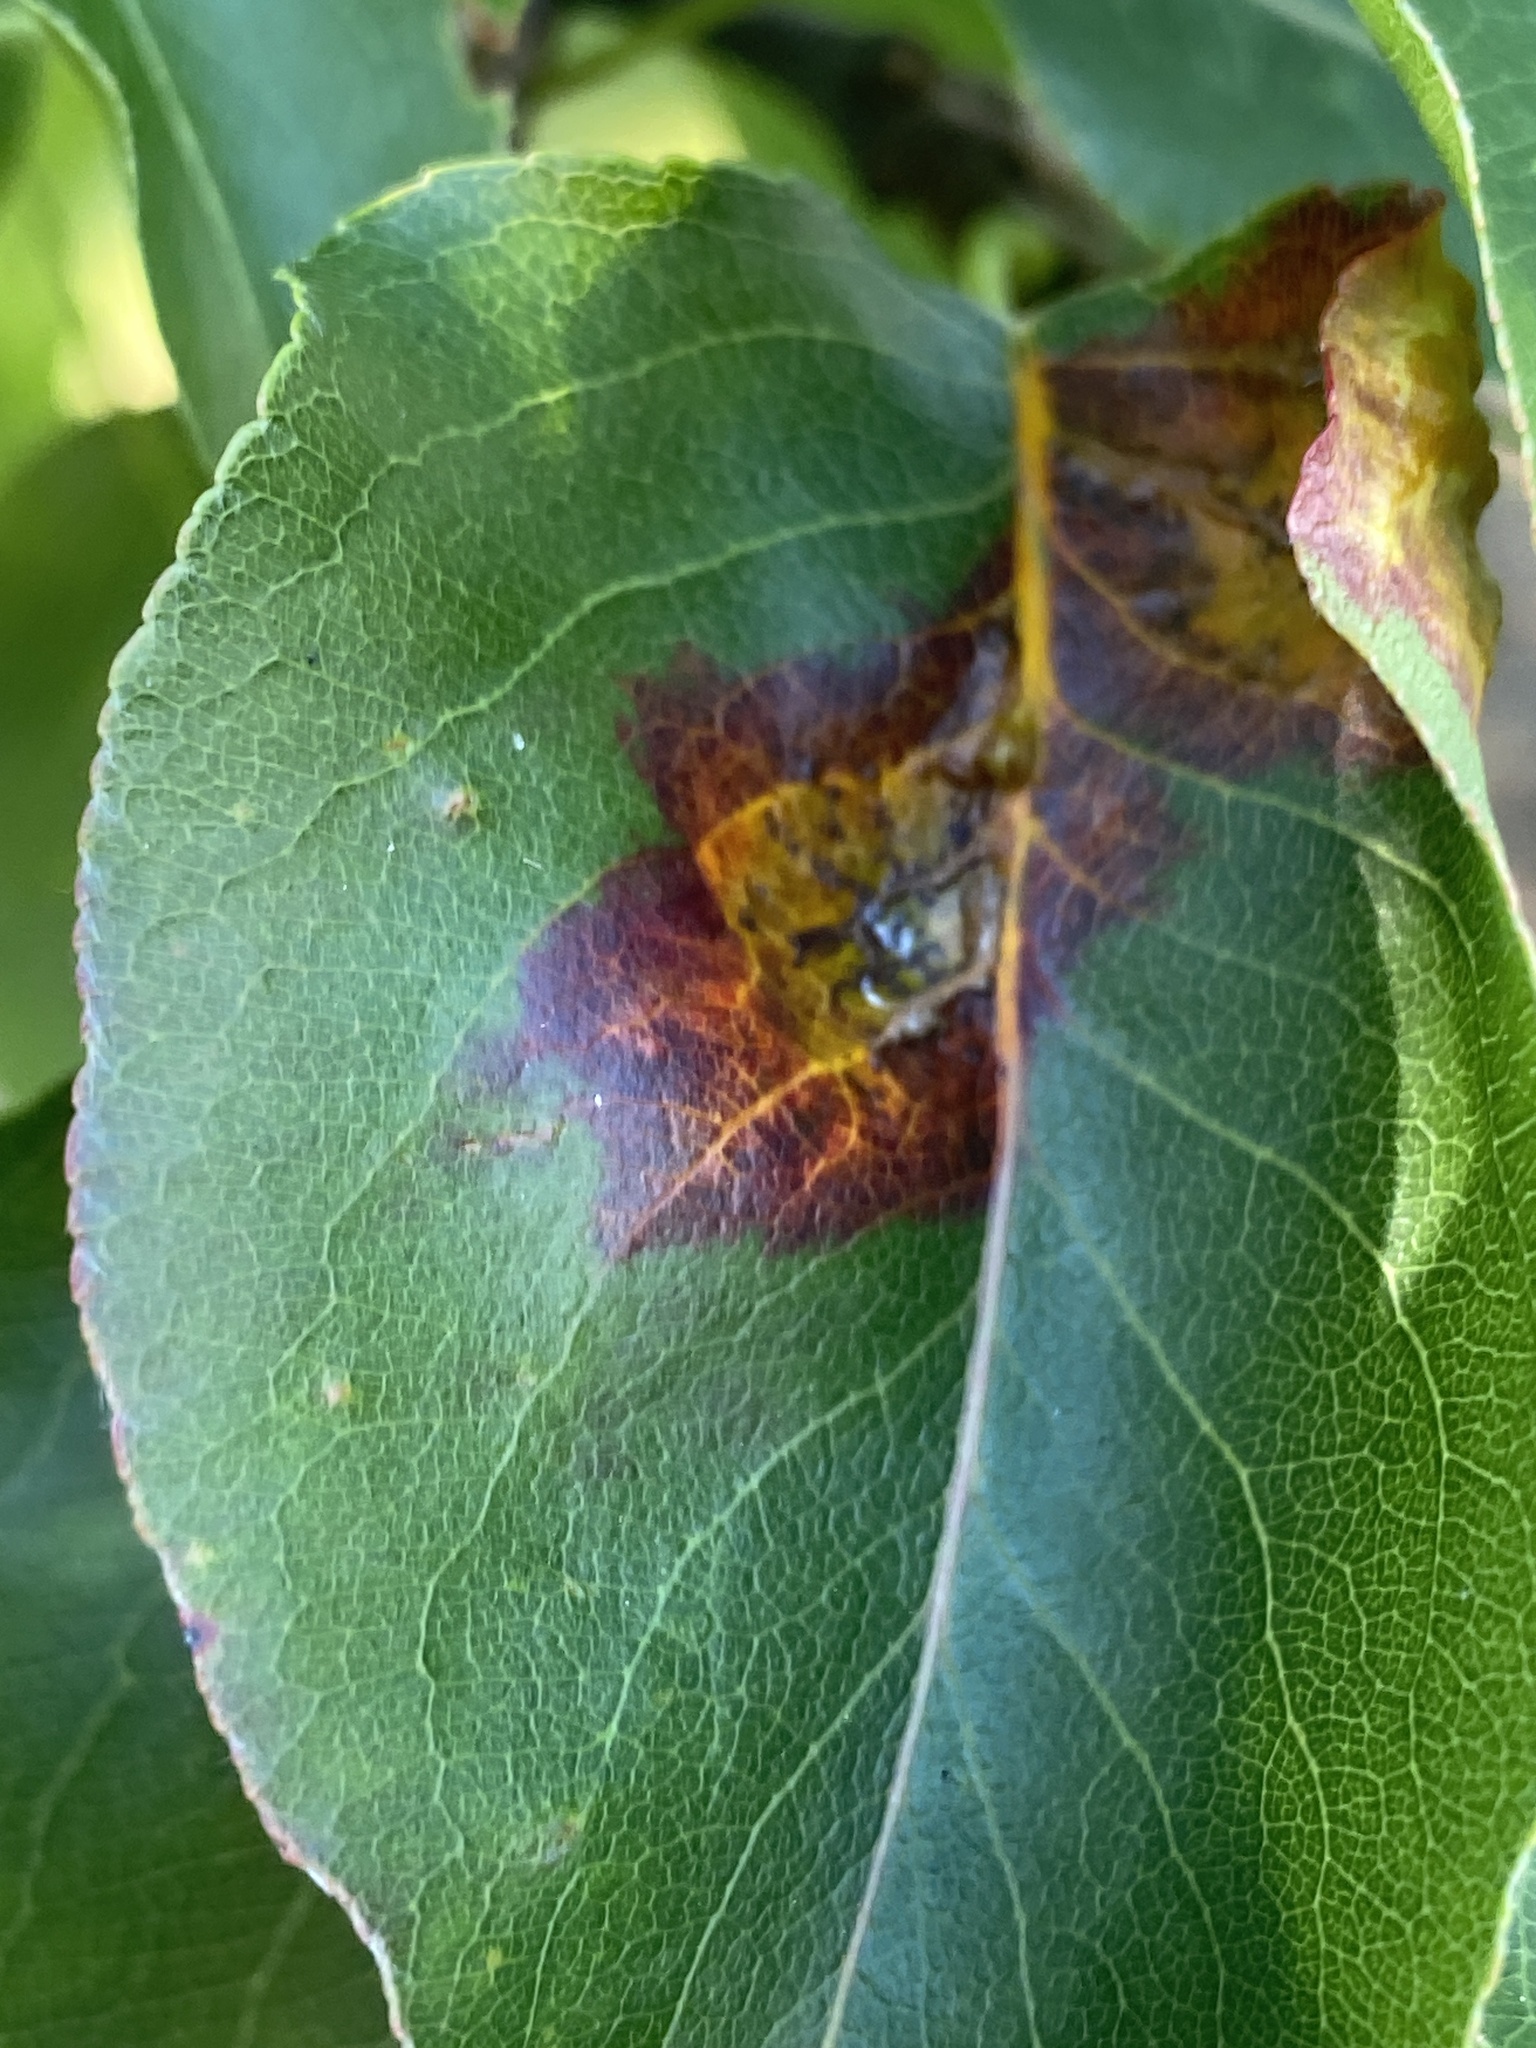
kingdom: Fungi
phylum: Basidiomycota
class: Pucciniomycetes
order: Pucciniales
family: Gymnosporangiaceae
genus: Gymnosporangium
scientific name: Gymnosporangium sabinae
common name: Pear trellis rust fungus
